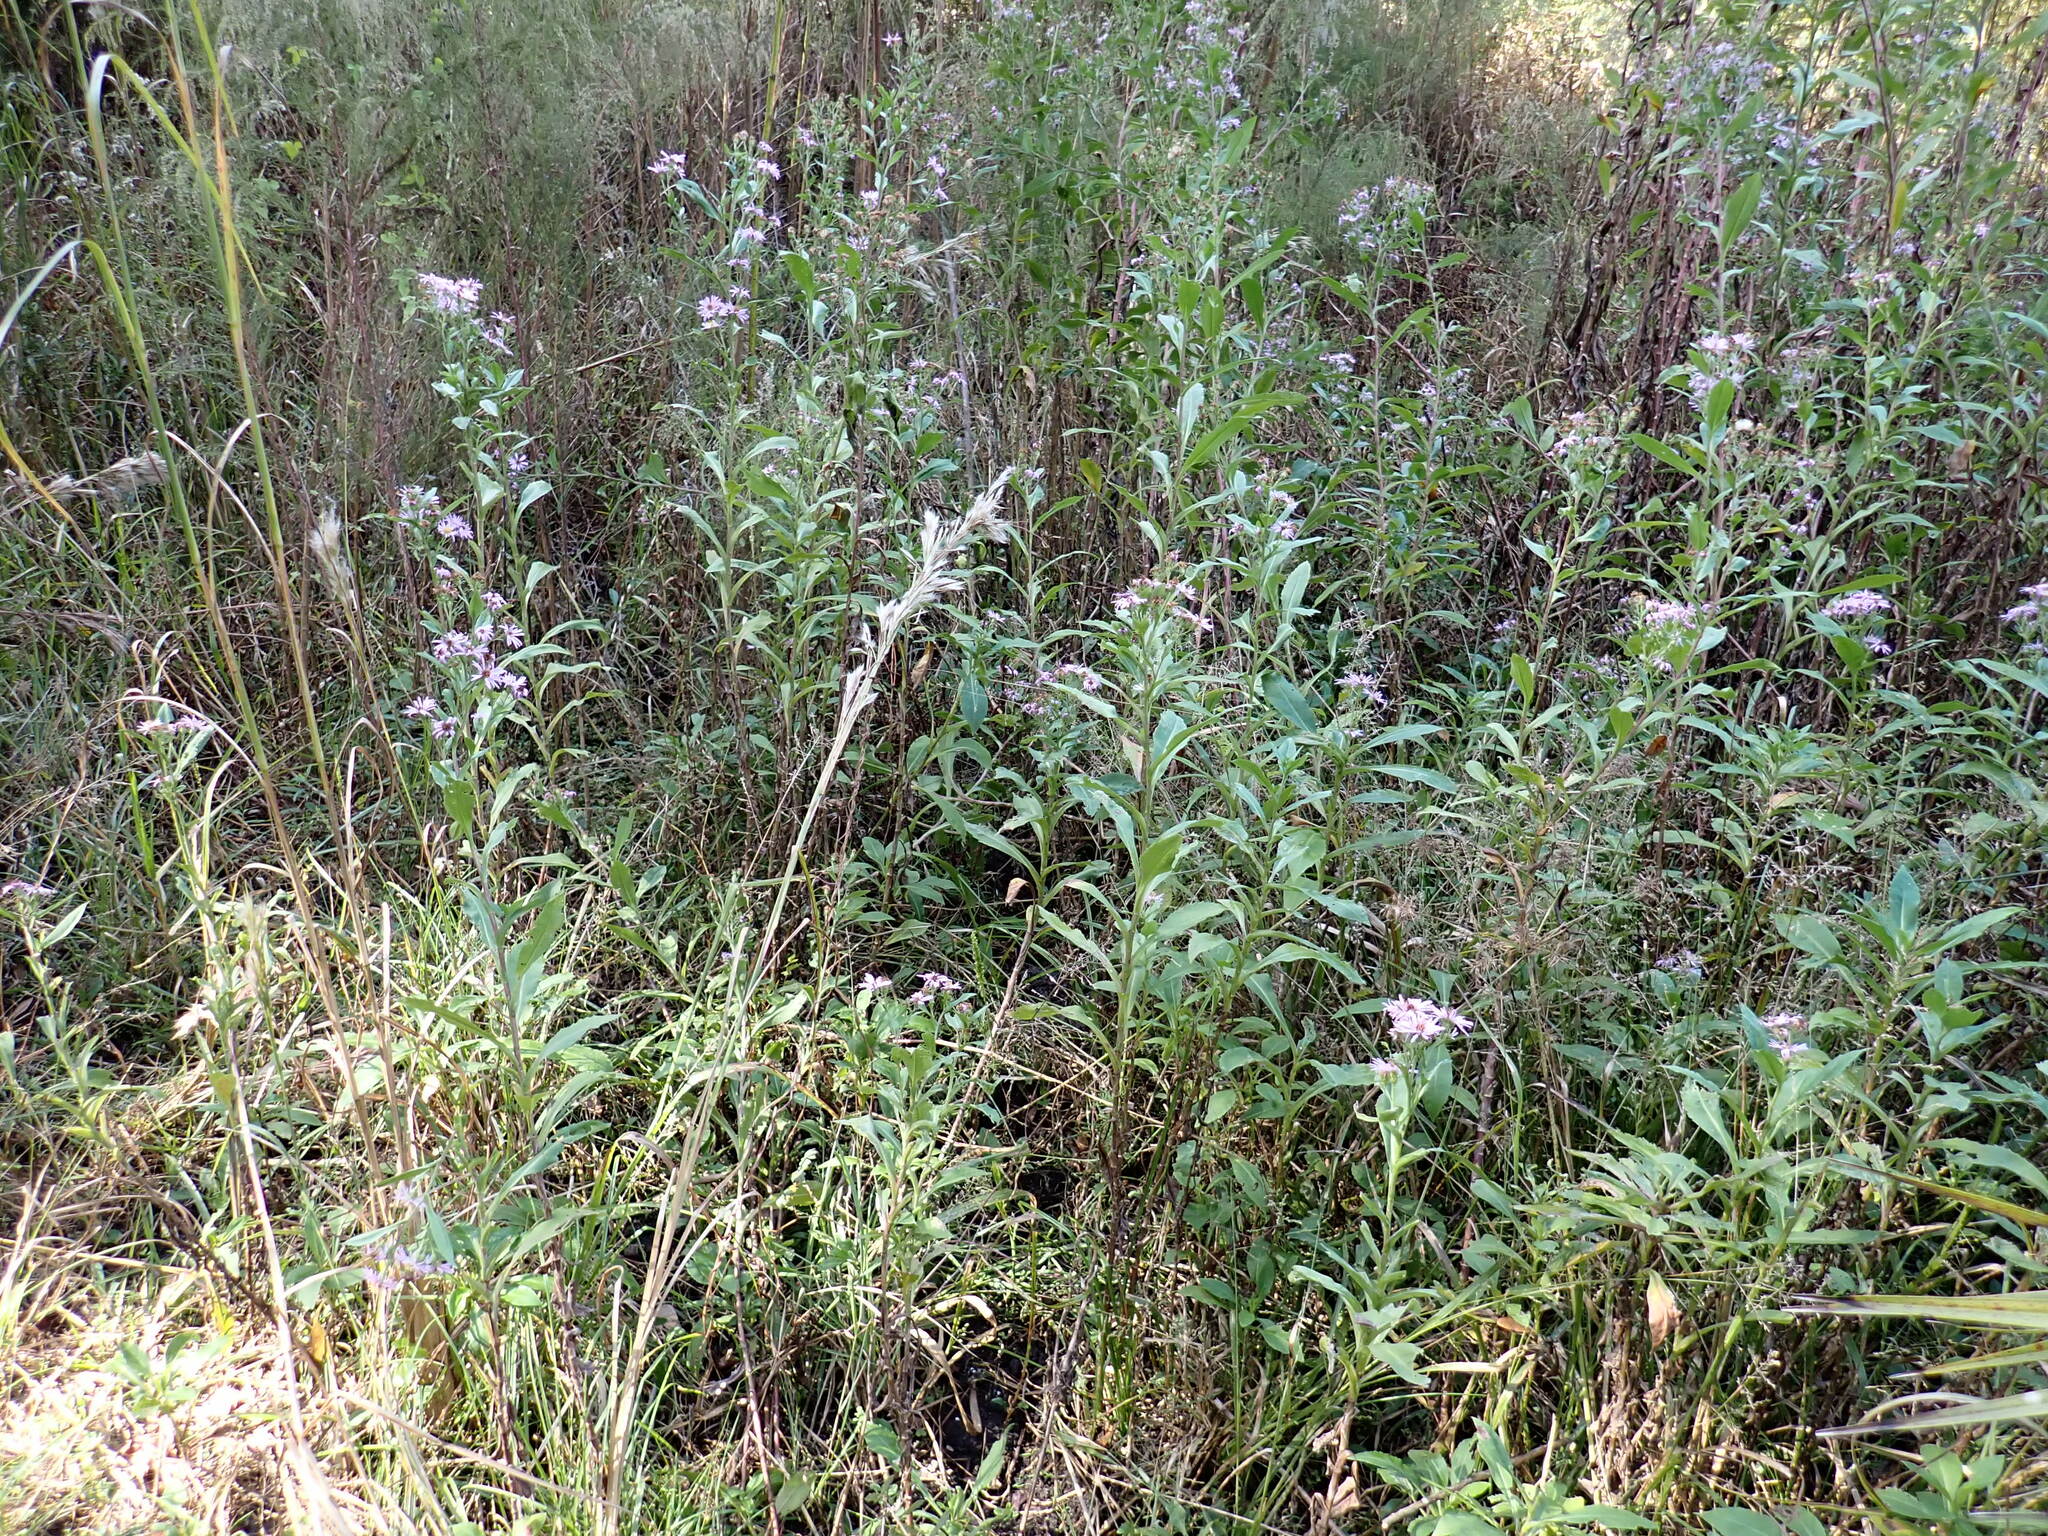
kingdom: Plantae
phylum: Tracheophyta
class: Magnoliopsida
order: Asterales
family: Asteraceae
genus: Symphyotrichum
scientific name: Symphyotrichum elliottii
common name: Southern swamp aster
